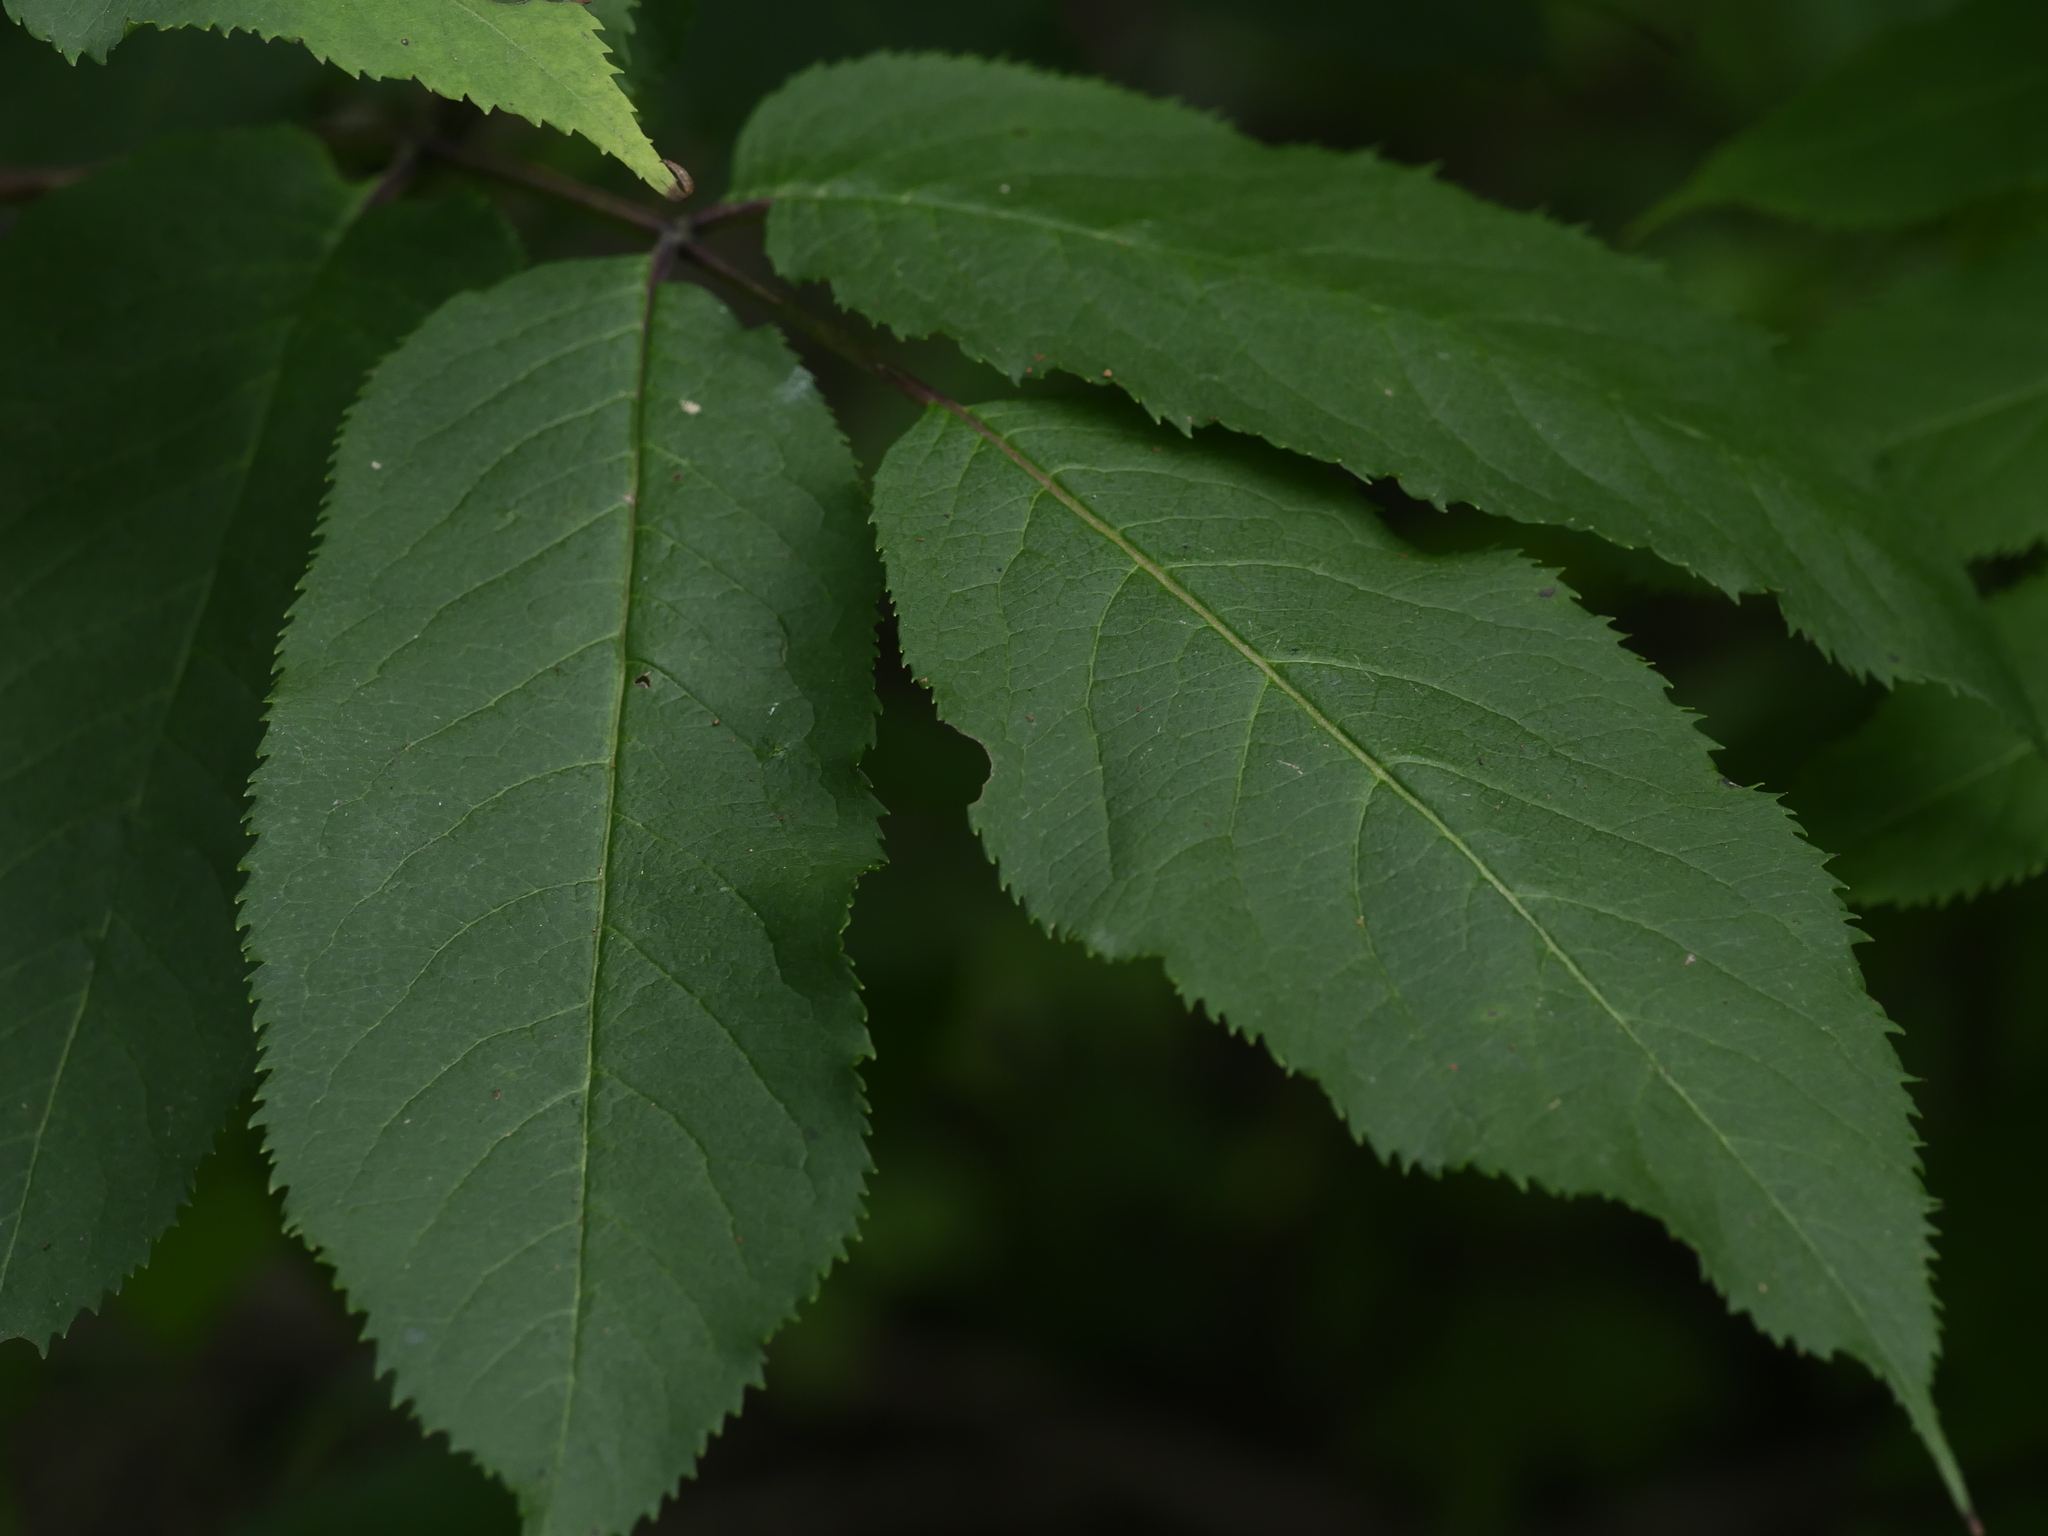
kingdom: Plantae
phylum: Tracheophyta
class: Magnoliopsida
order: Dipsacales
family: Viburnaceae
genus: Sambucus
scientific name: Sambucus racemosa
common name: Red-berried elder
